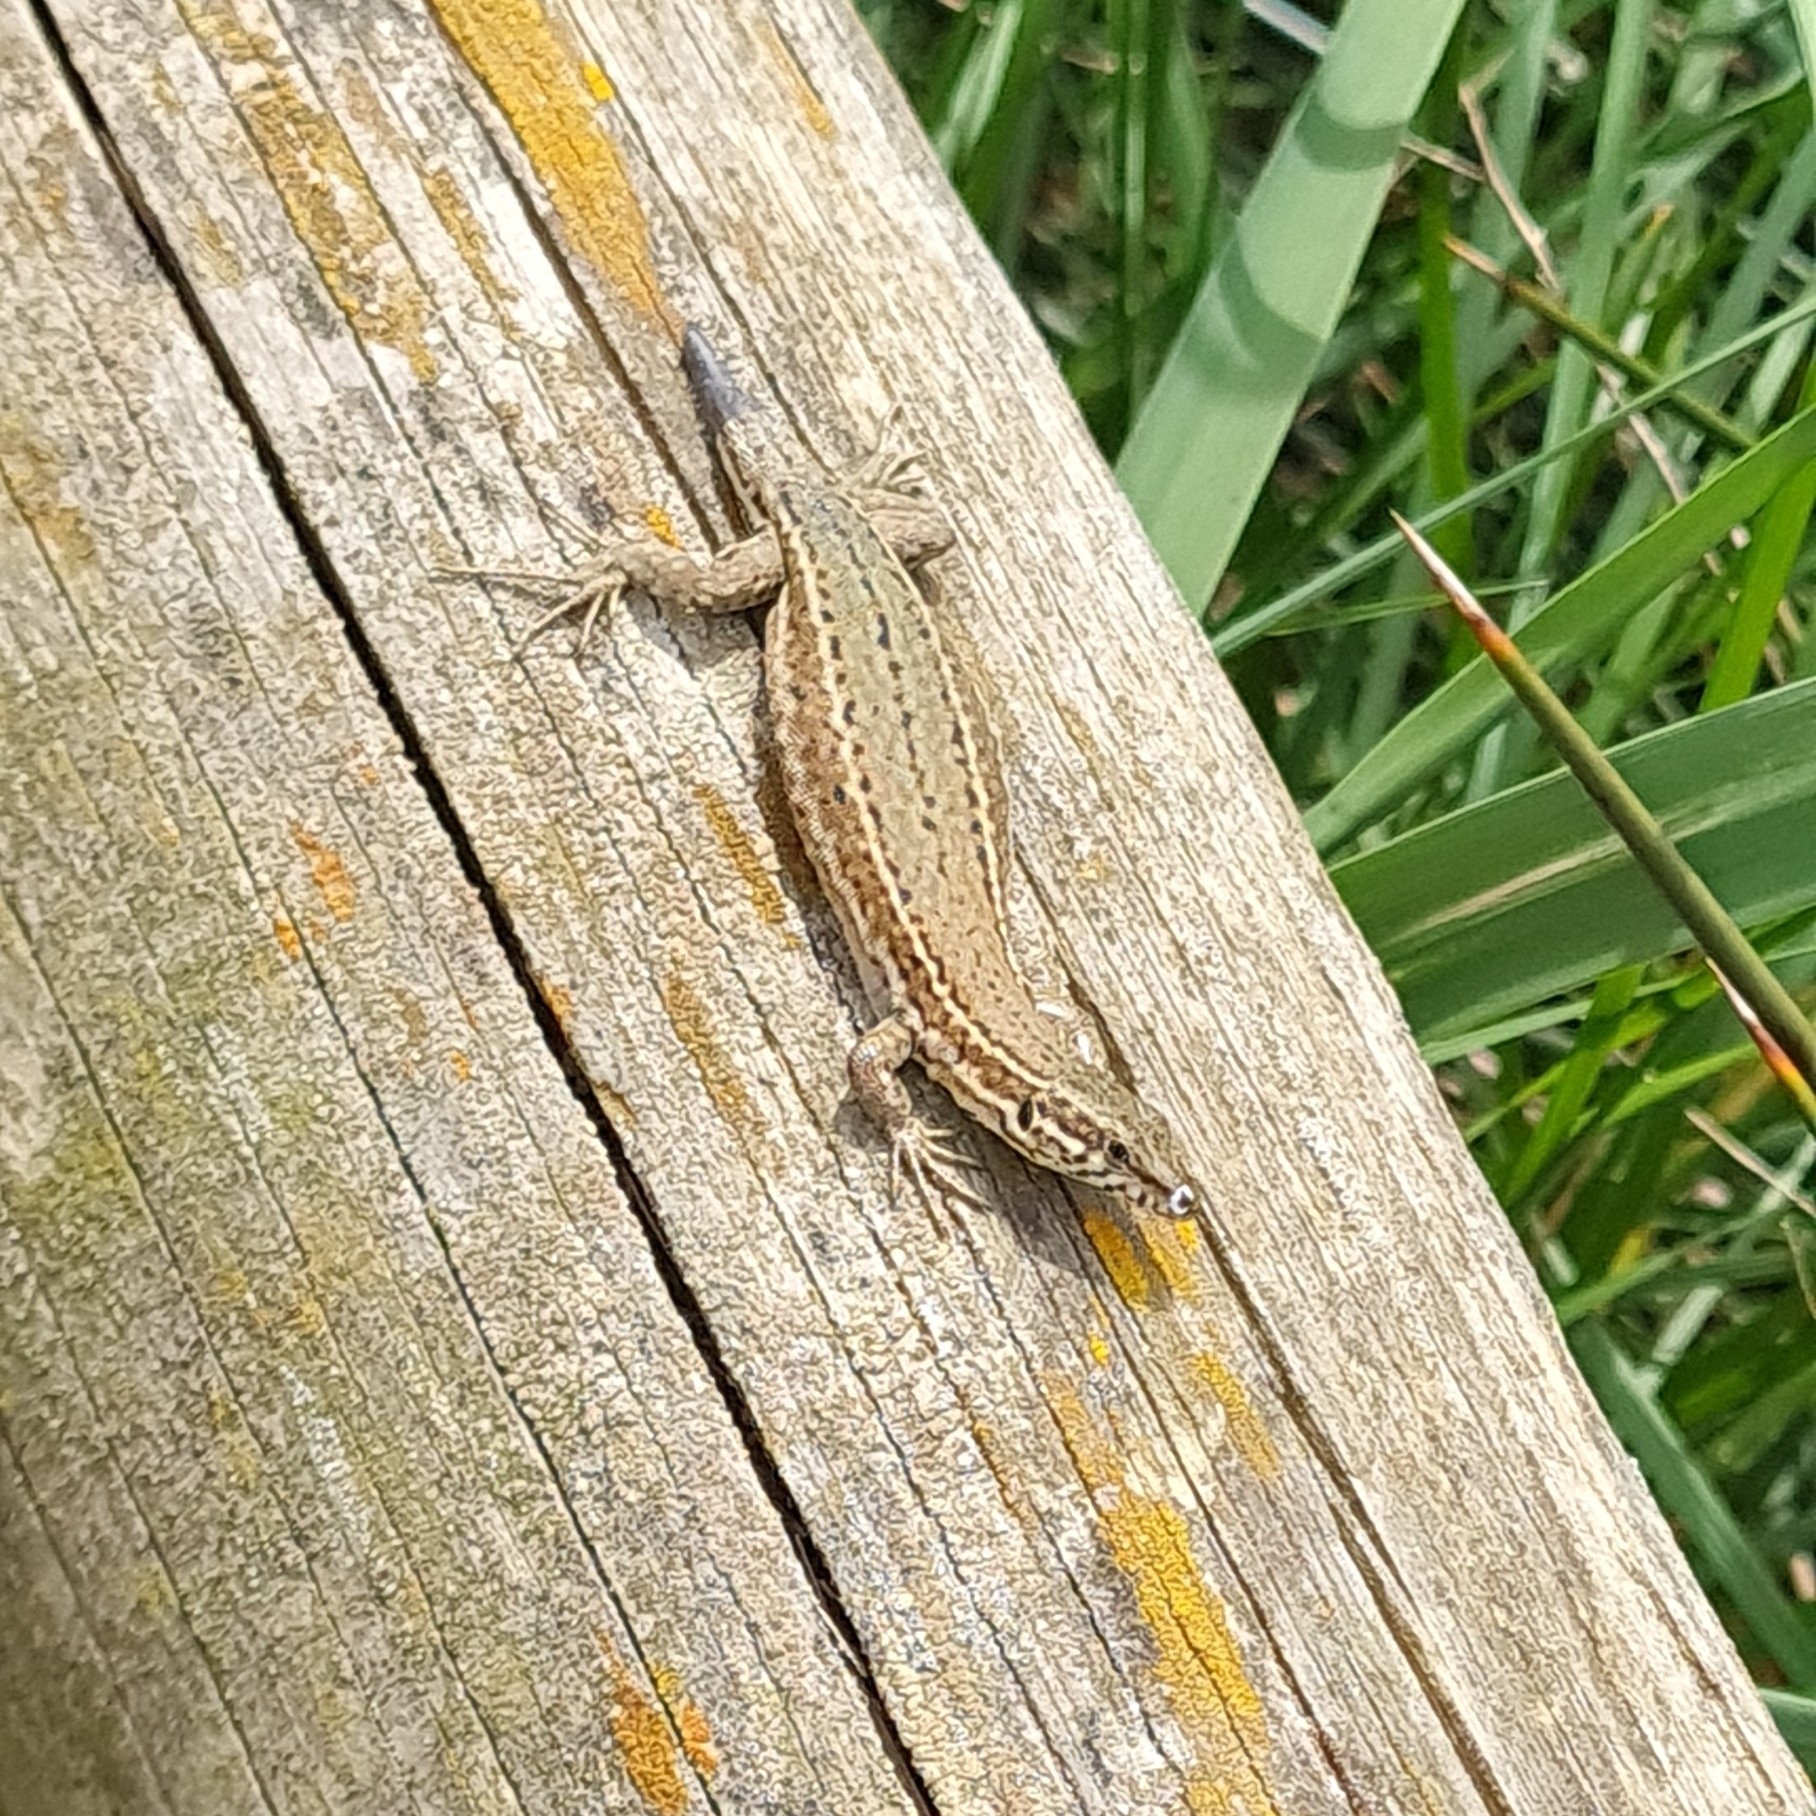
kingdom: Animalia
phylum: Chordata
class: Squamata
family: Lacertidae
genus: Podarcis
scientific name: Podarcis liolepis
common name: Catalonian wall lizard
